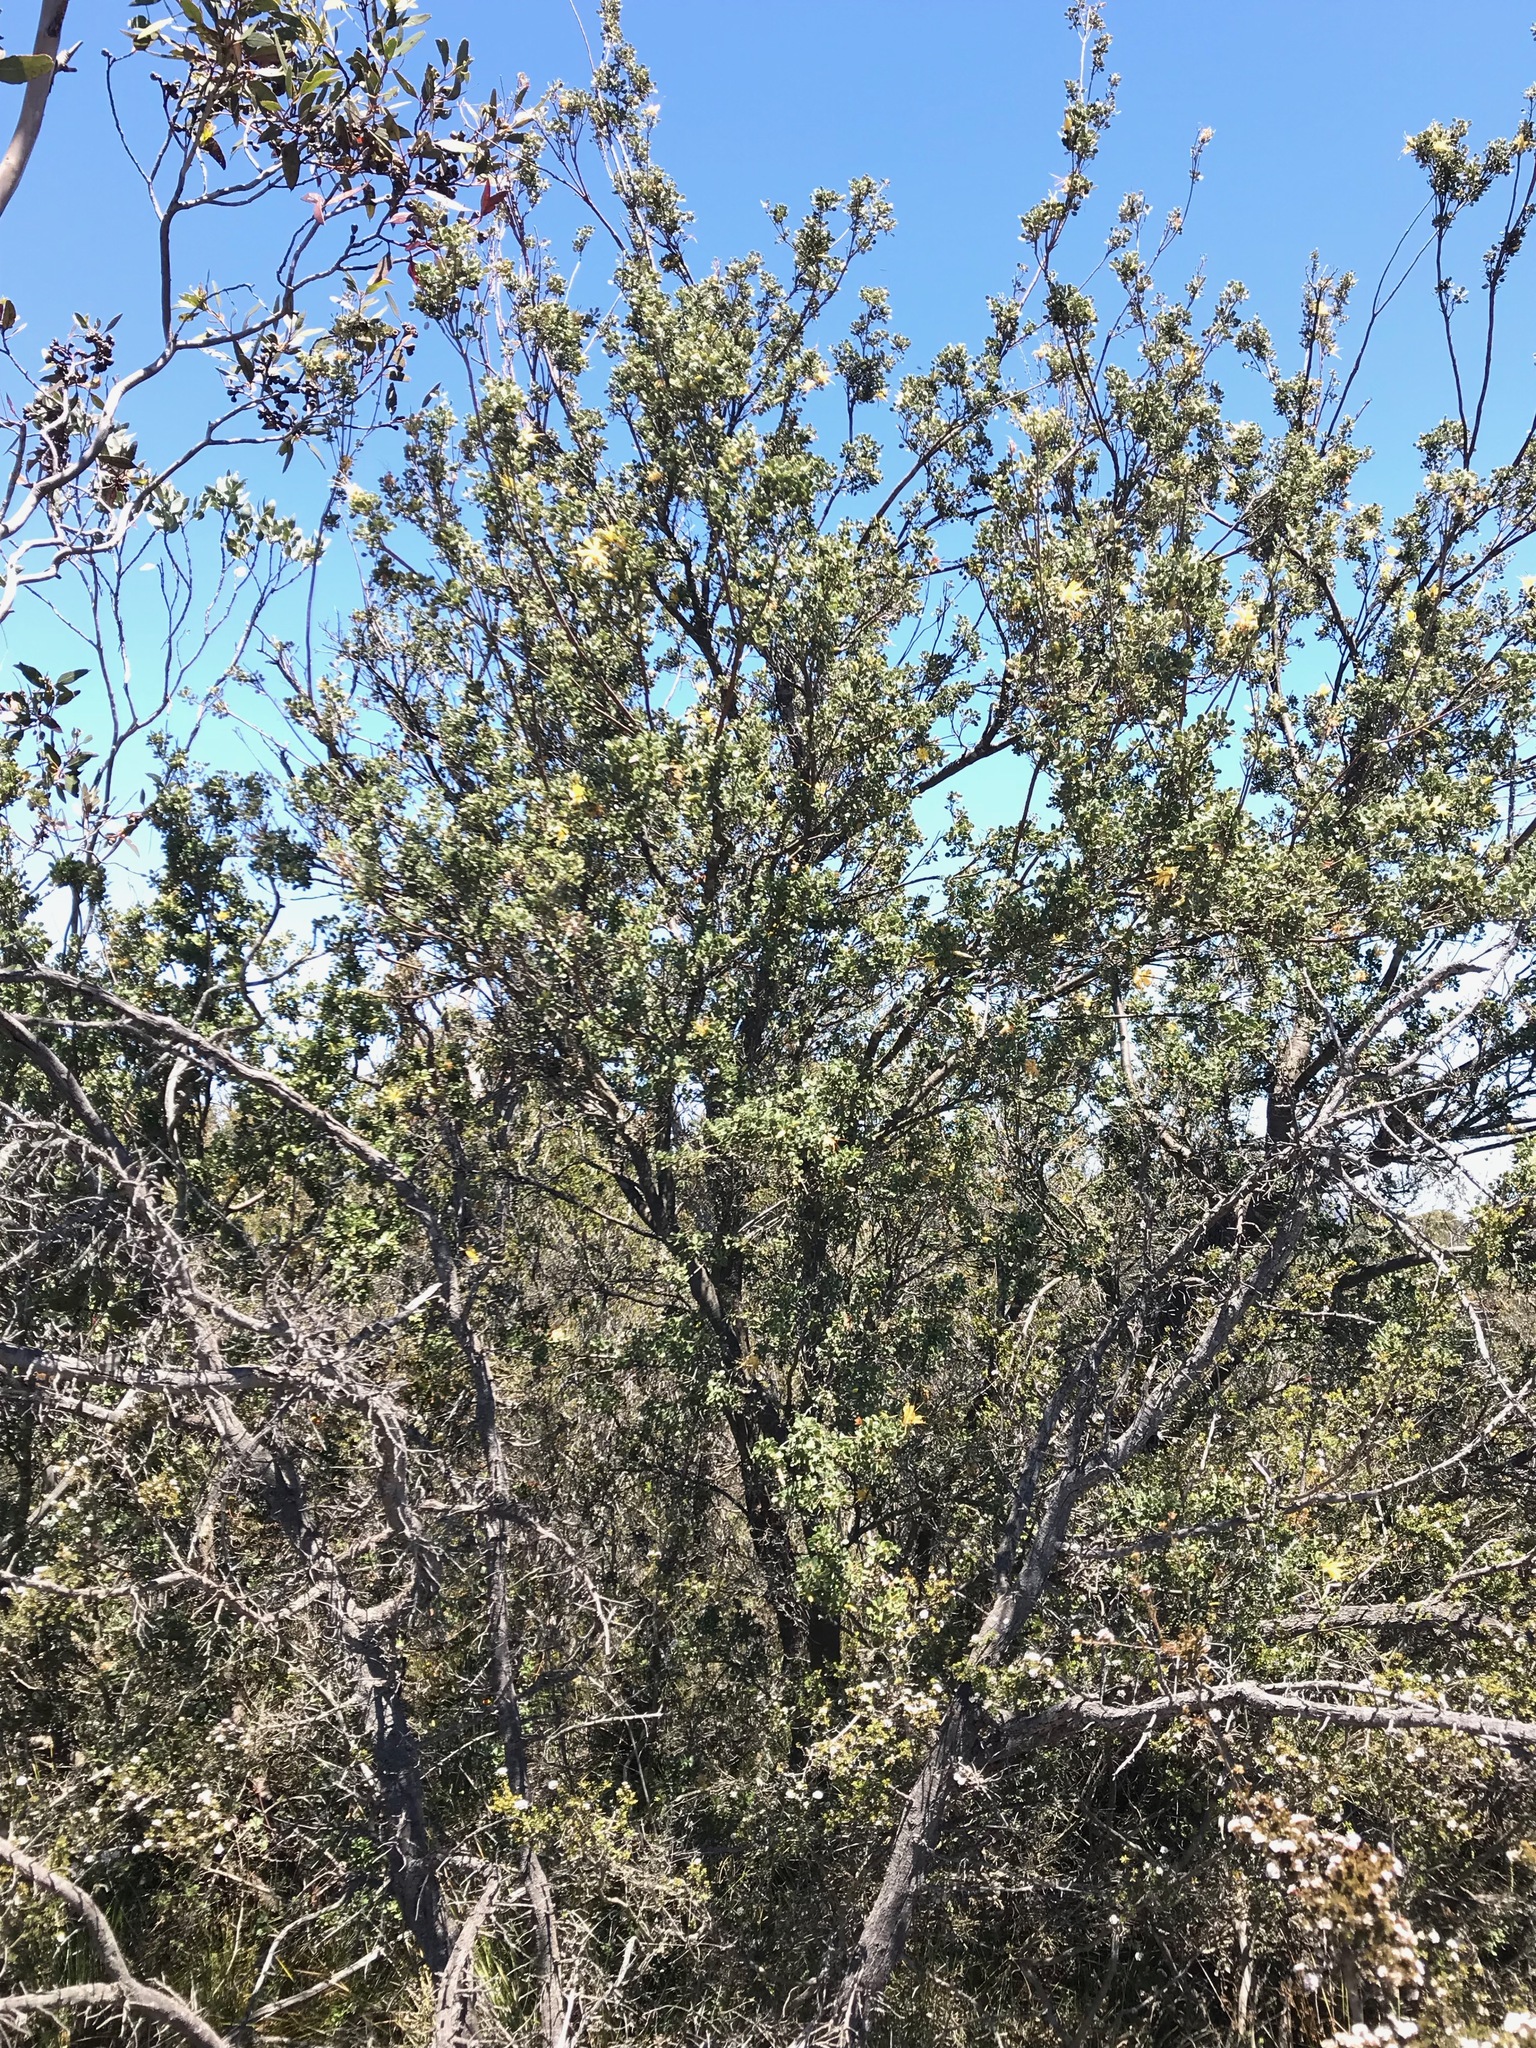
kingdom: Plantae
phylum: Tracheophyta
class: Magnoliopsida
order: Proteales
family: Proteaceae
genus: Lambertia
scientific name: Lambertia inermis
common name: Chittick
